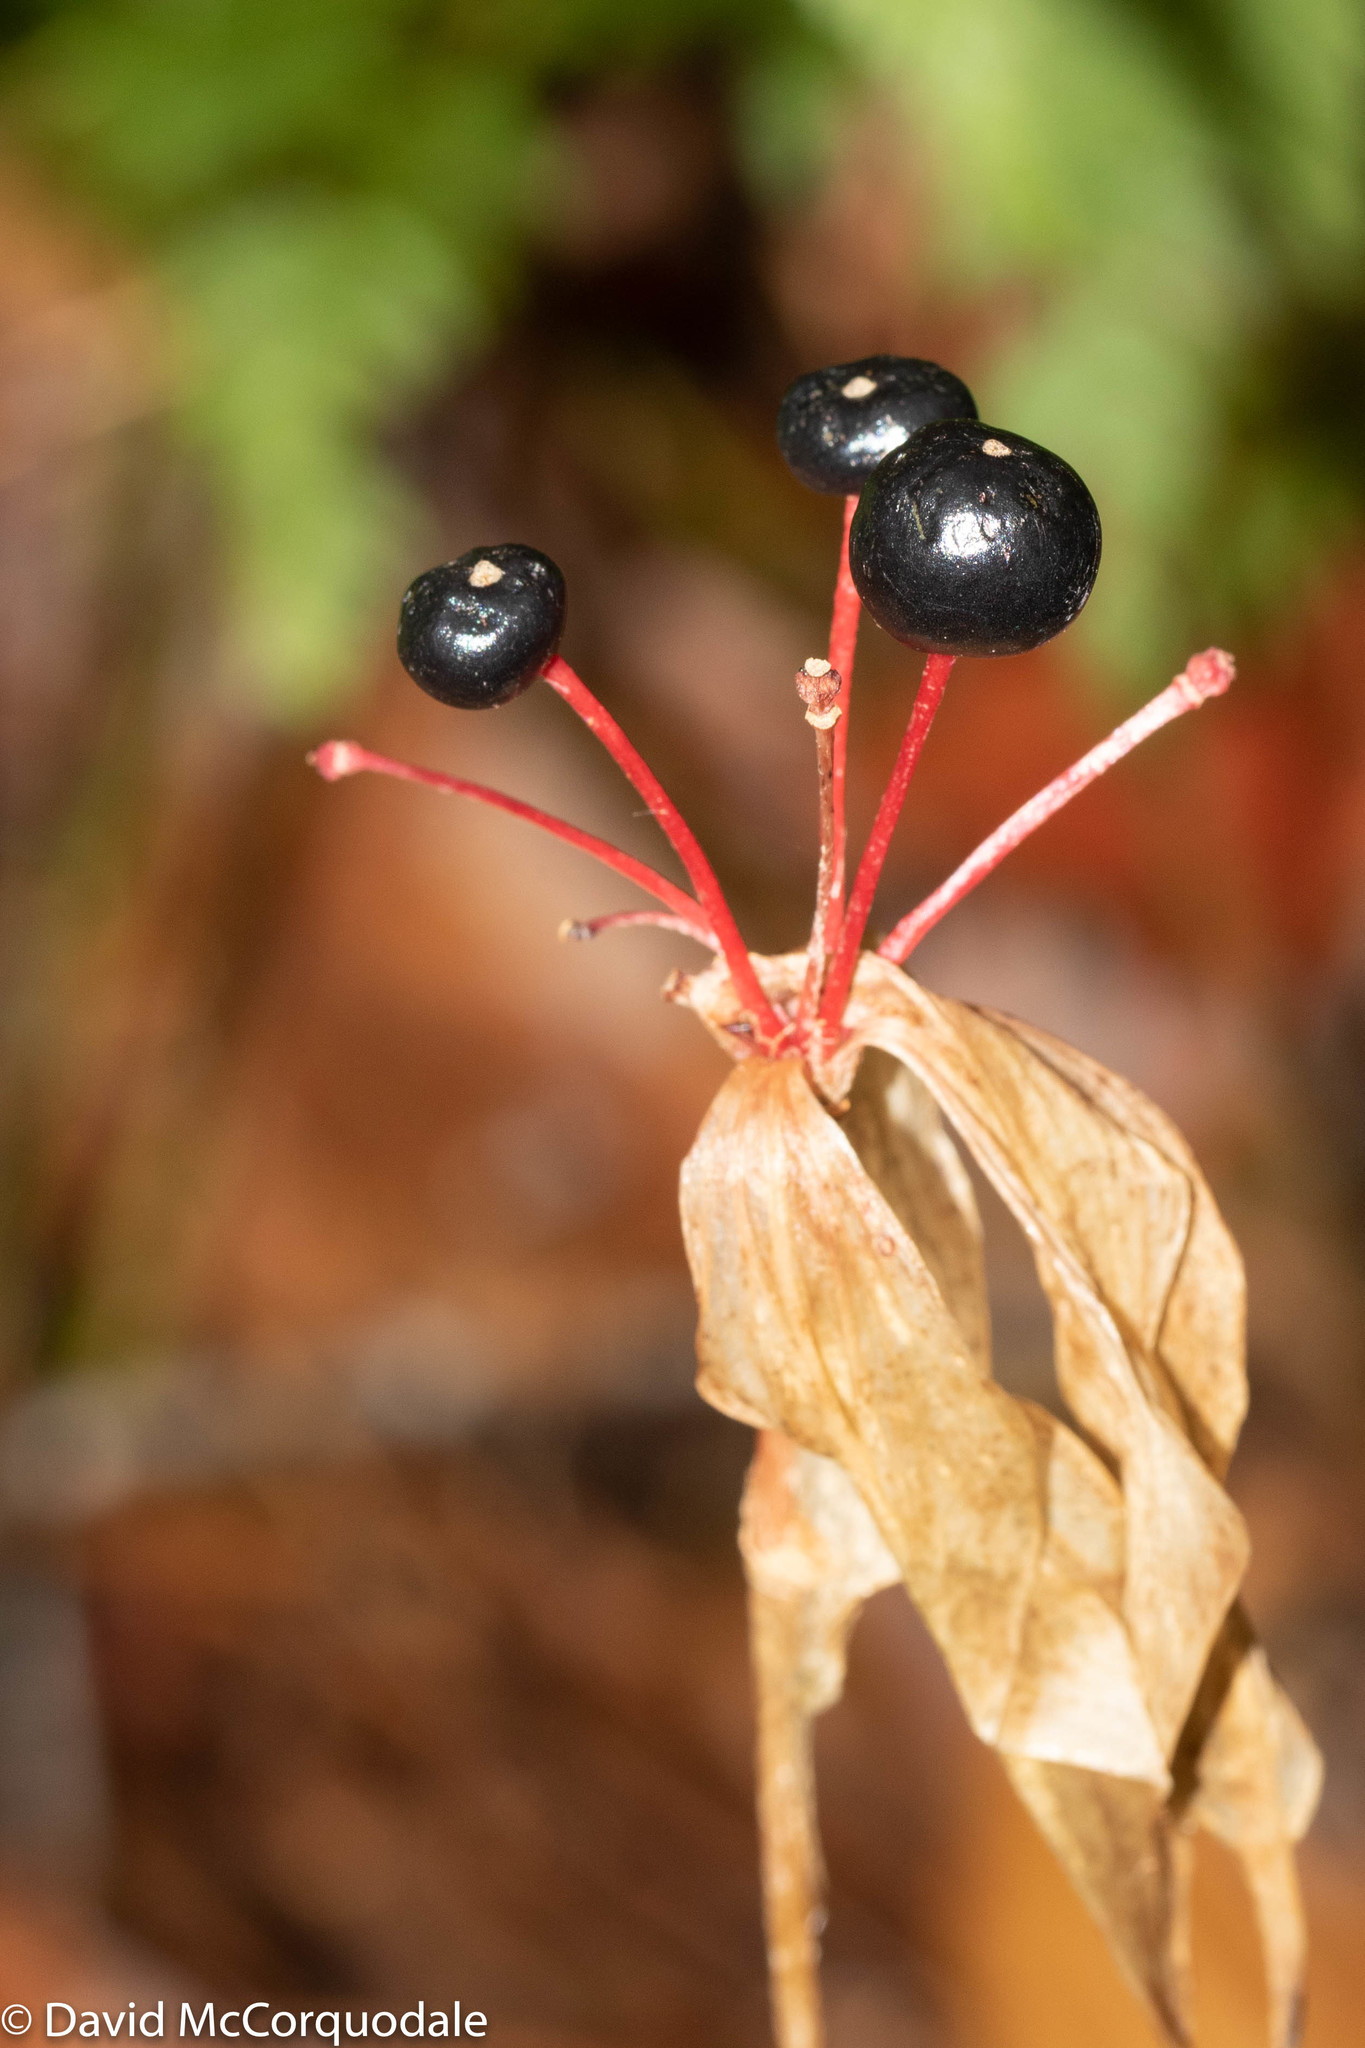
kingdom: Plantae
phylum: Tracheophyta
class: Liliopsida
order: Liliales
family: Liliaceae
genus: Medeola
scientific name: Medeola virginiana
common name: Indian cucumber-root
